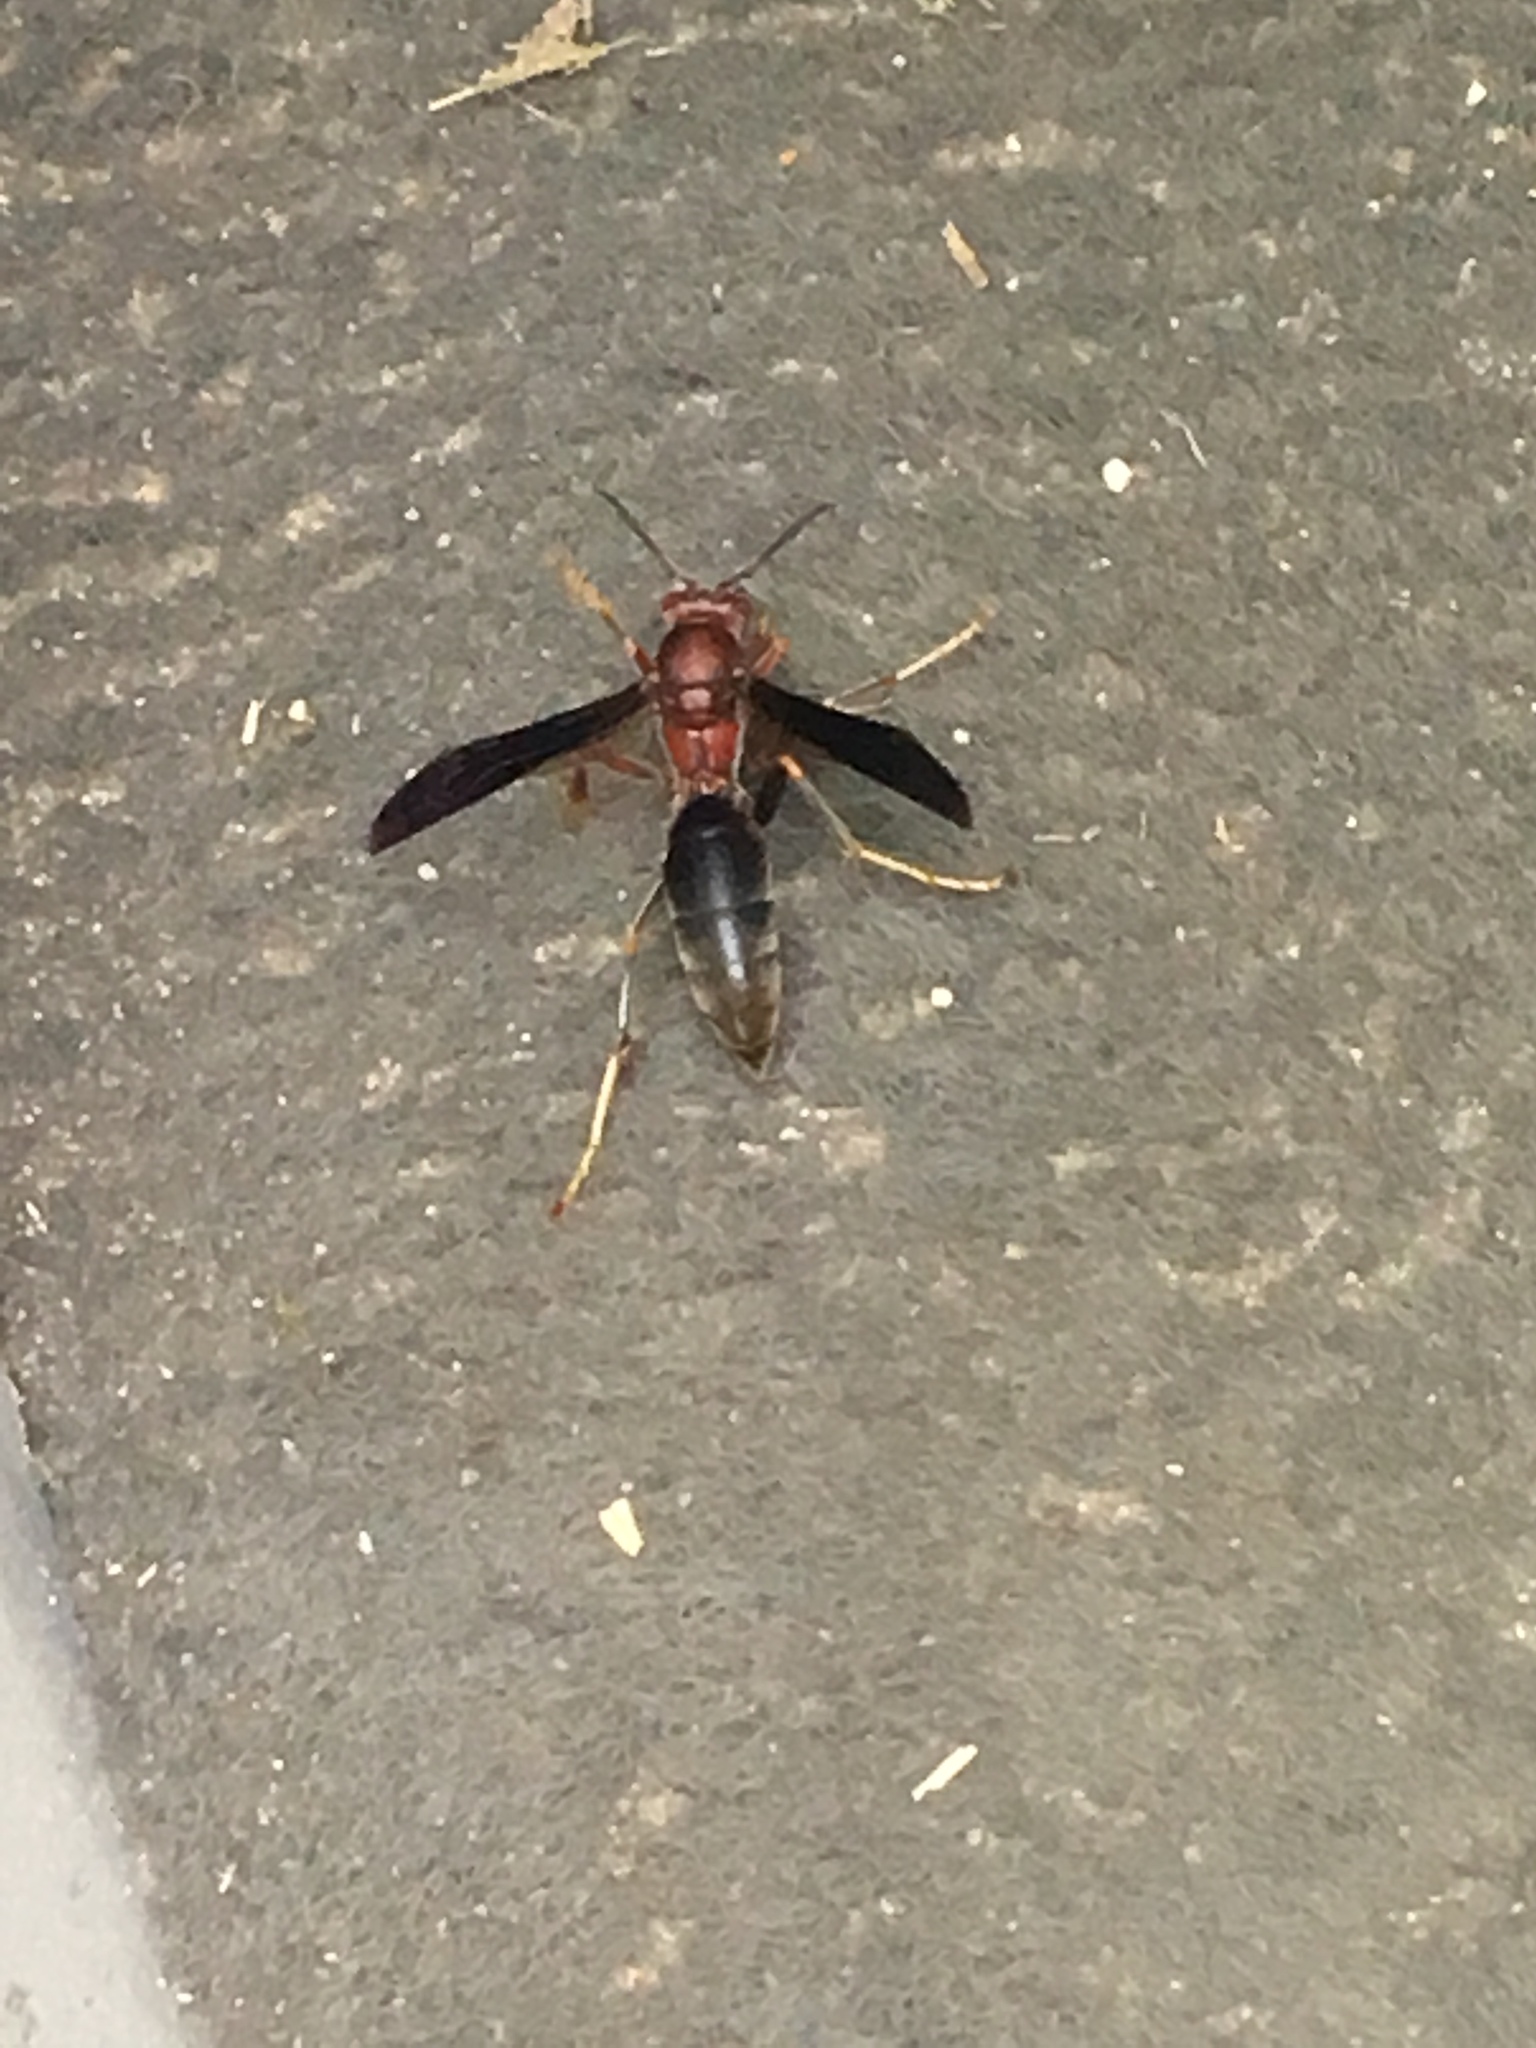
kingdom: Animalia
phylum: Arthropoda
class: Insecta
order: Hymenoptera
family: Eumenidae
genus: Polistes
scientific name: Polistes metricus
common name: Metric paper wasp
